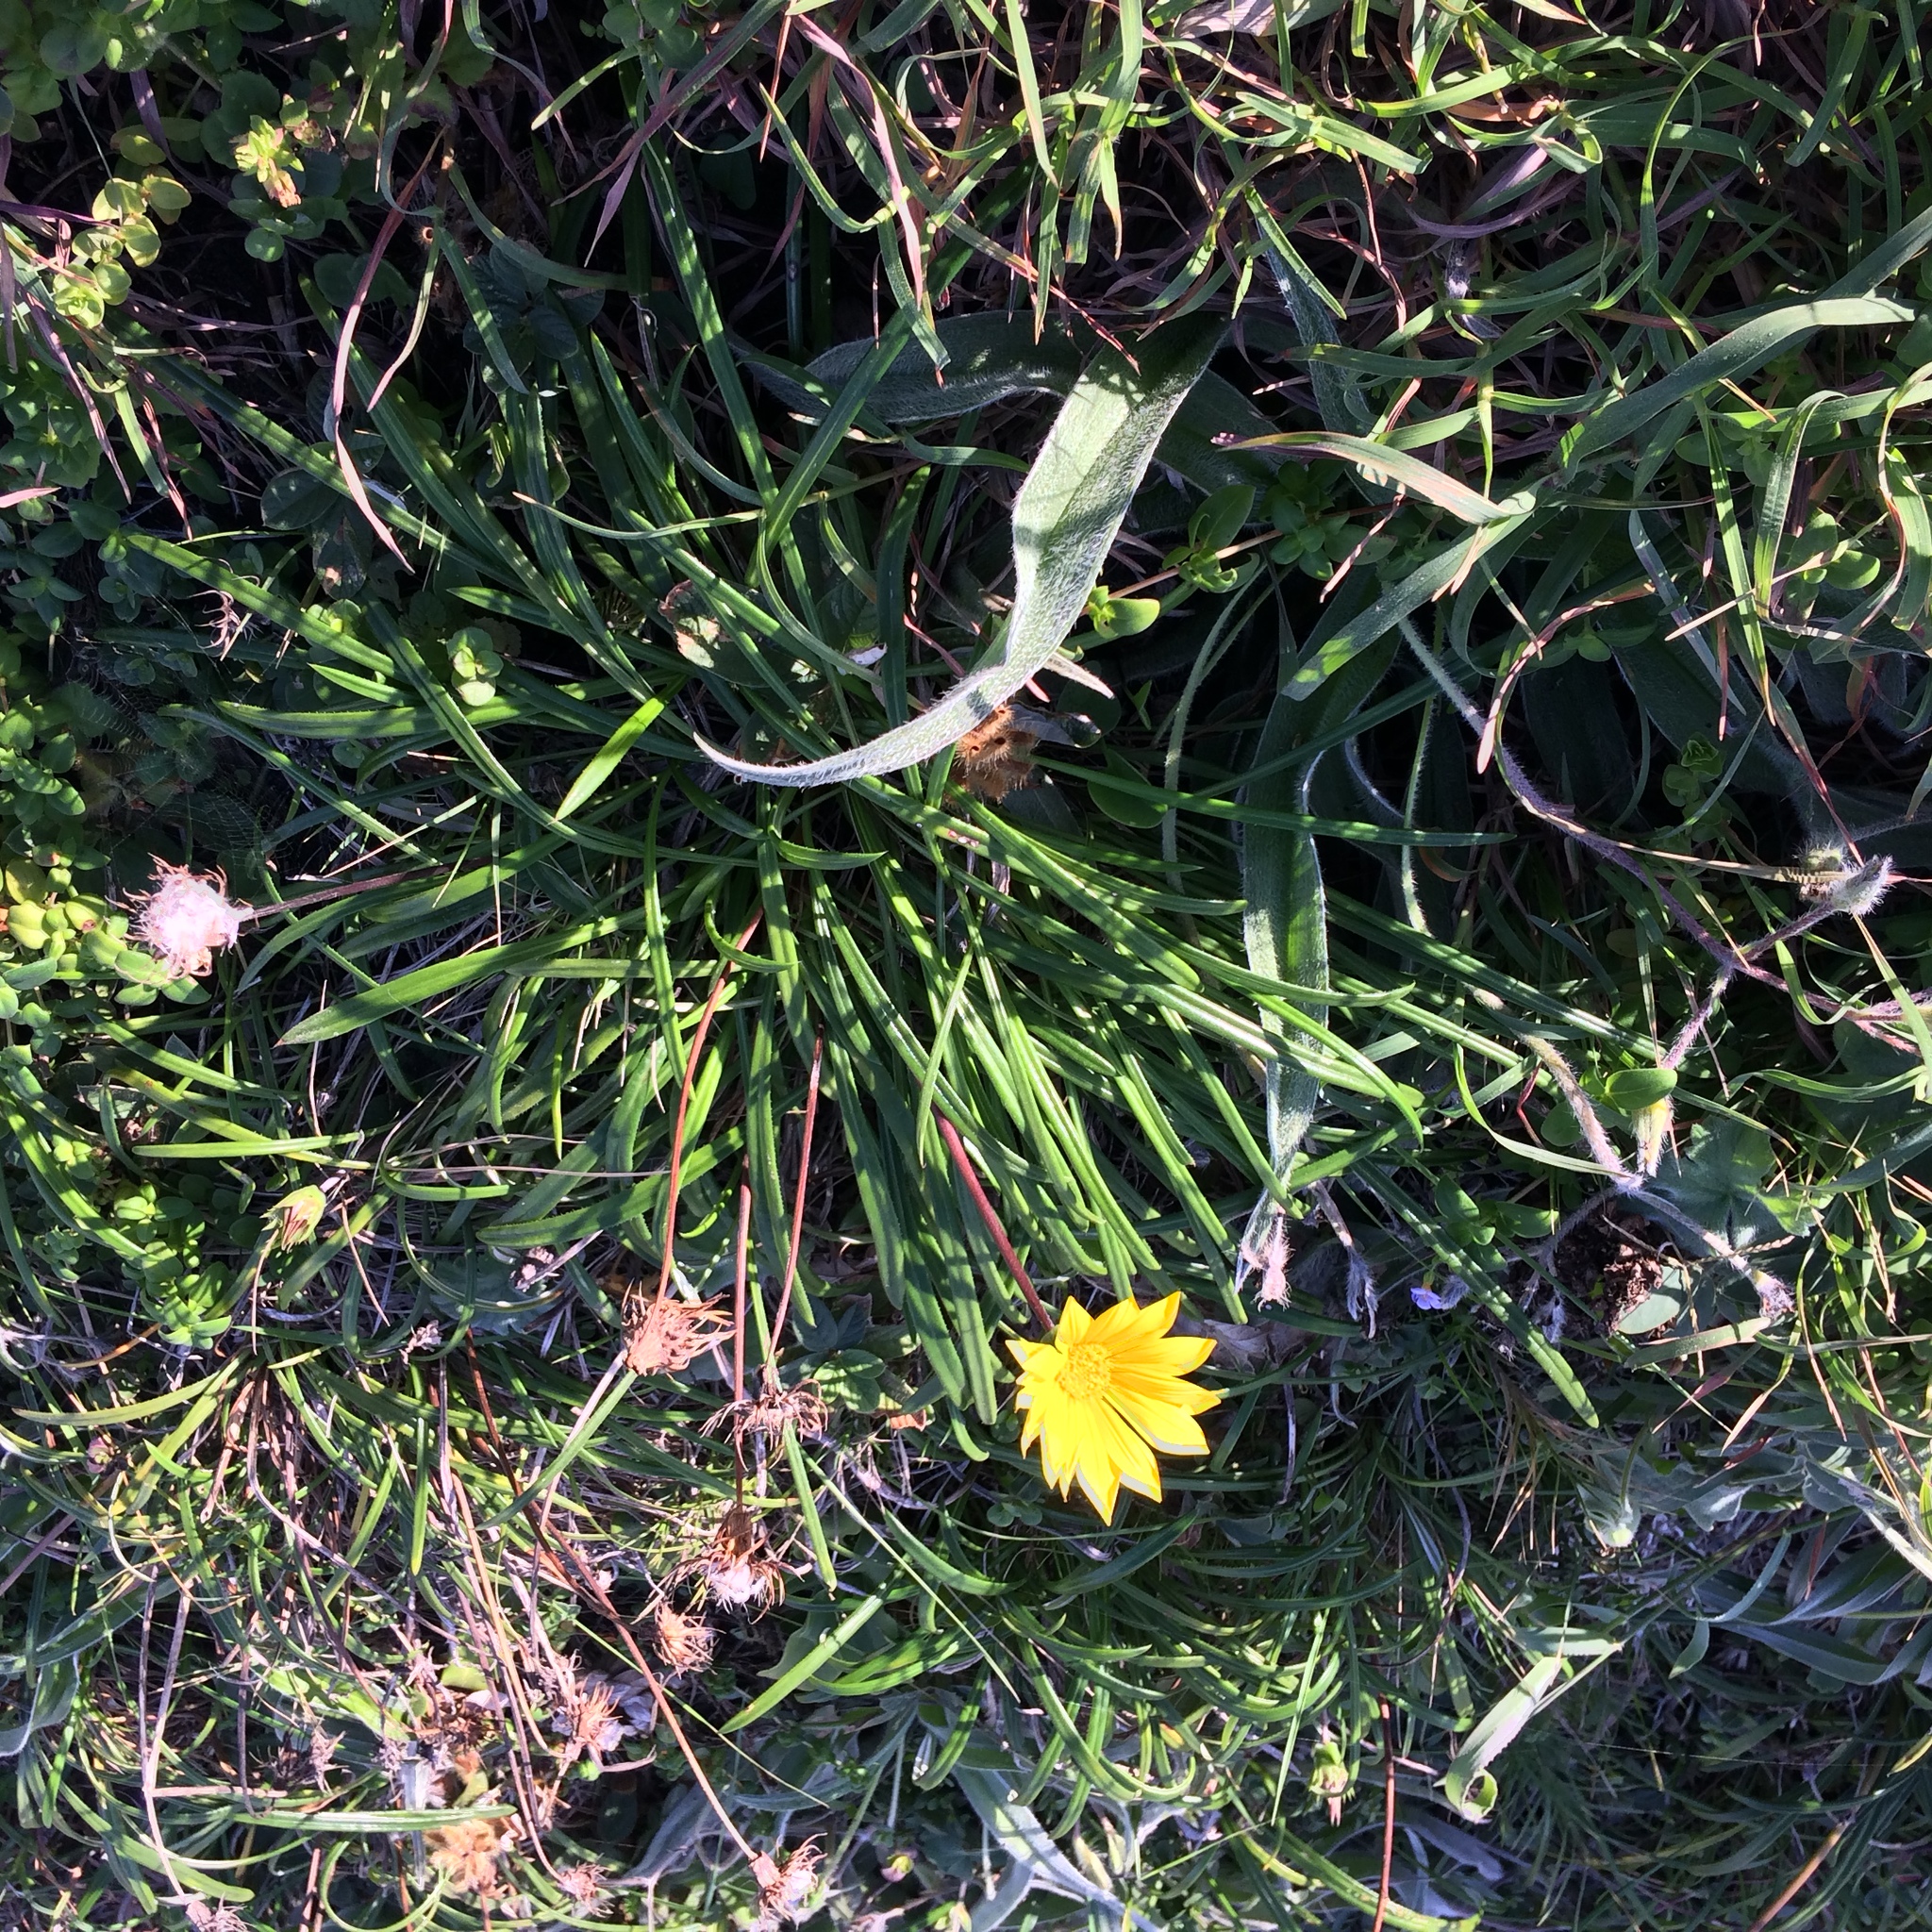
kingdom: Plantae
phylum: Tracheophyta
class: Magnoliopsida
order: Asterales
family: Asteraceae
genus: Gazania
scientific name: Gazania rigens
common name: Treasureflower
